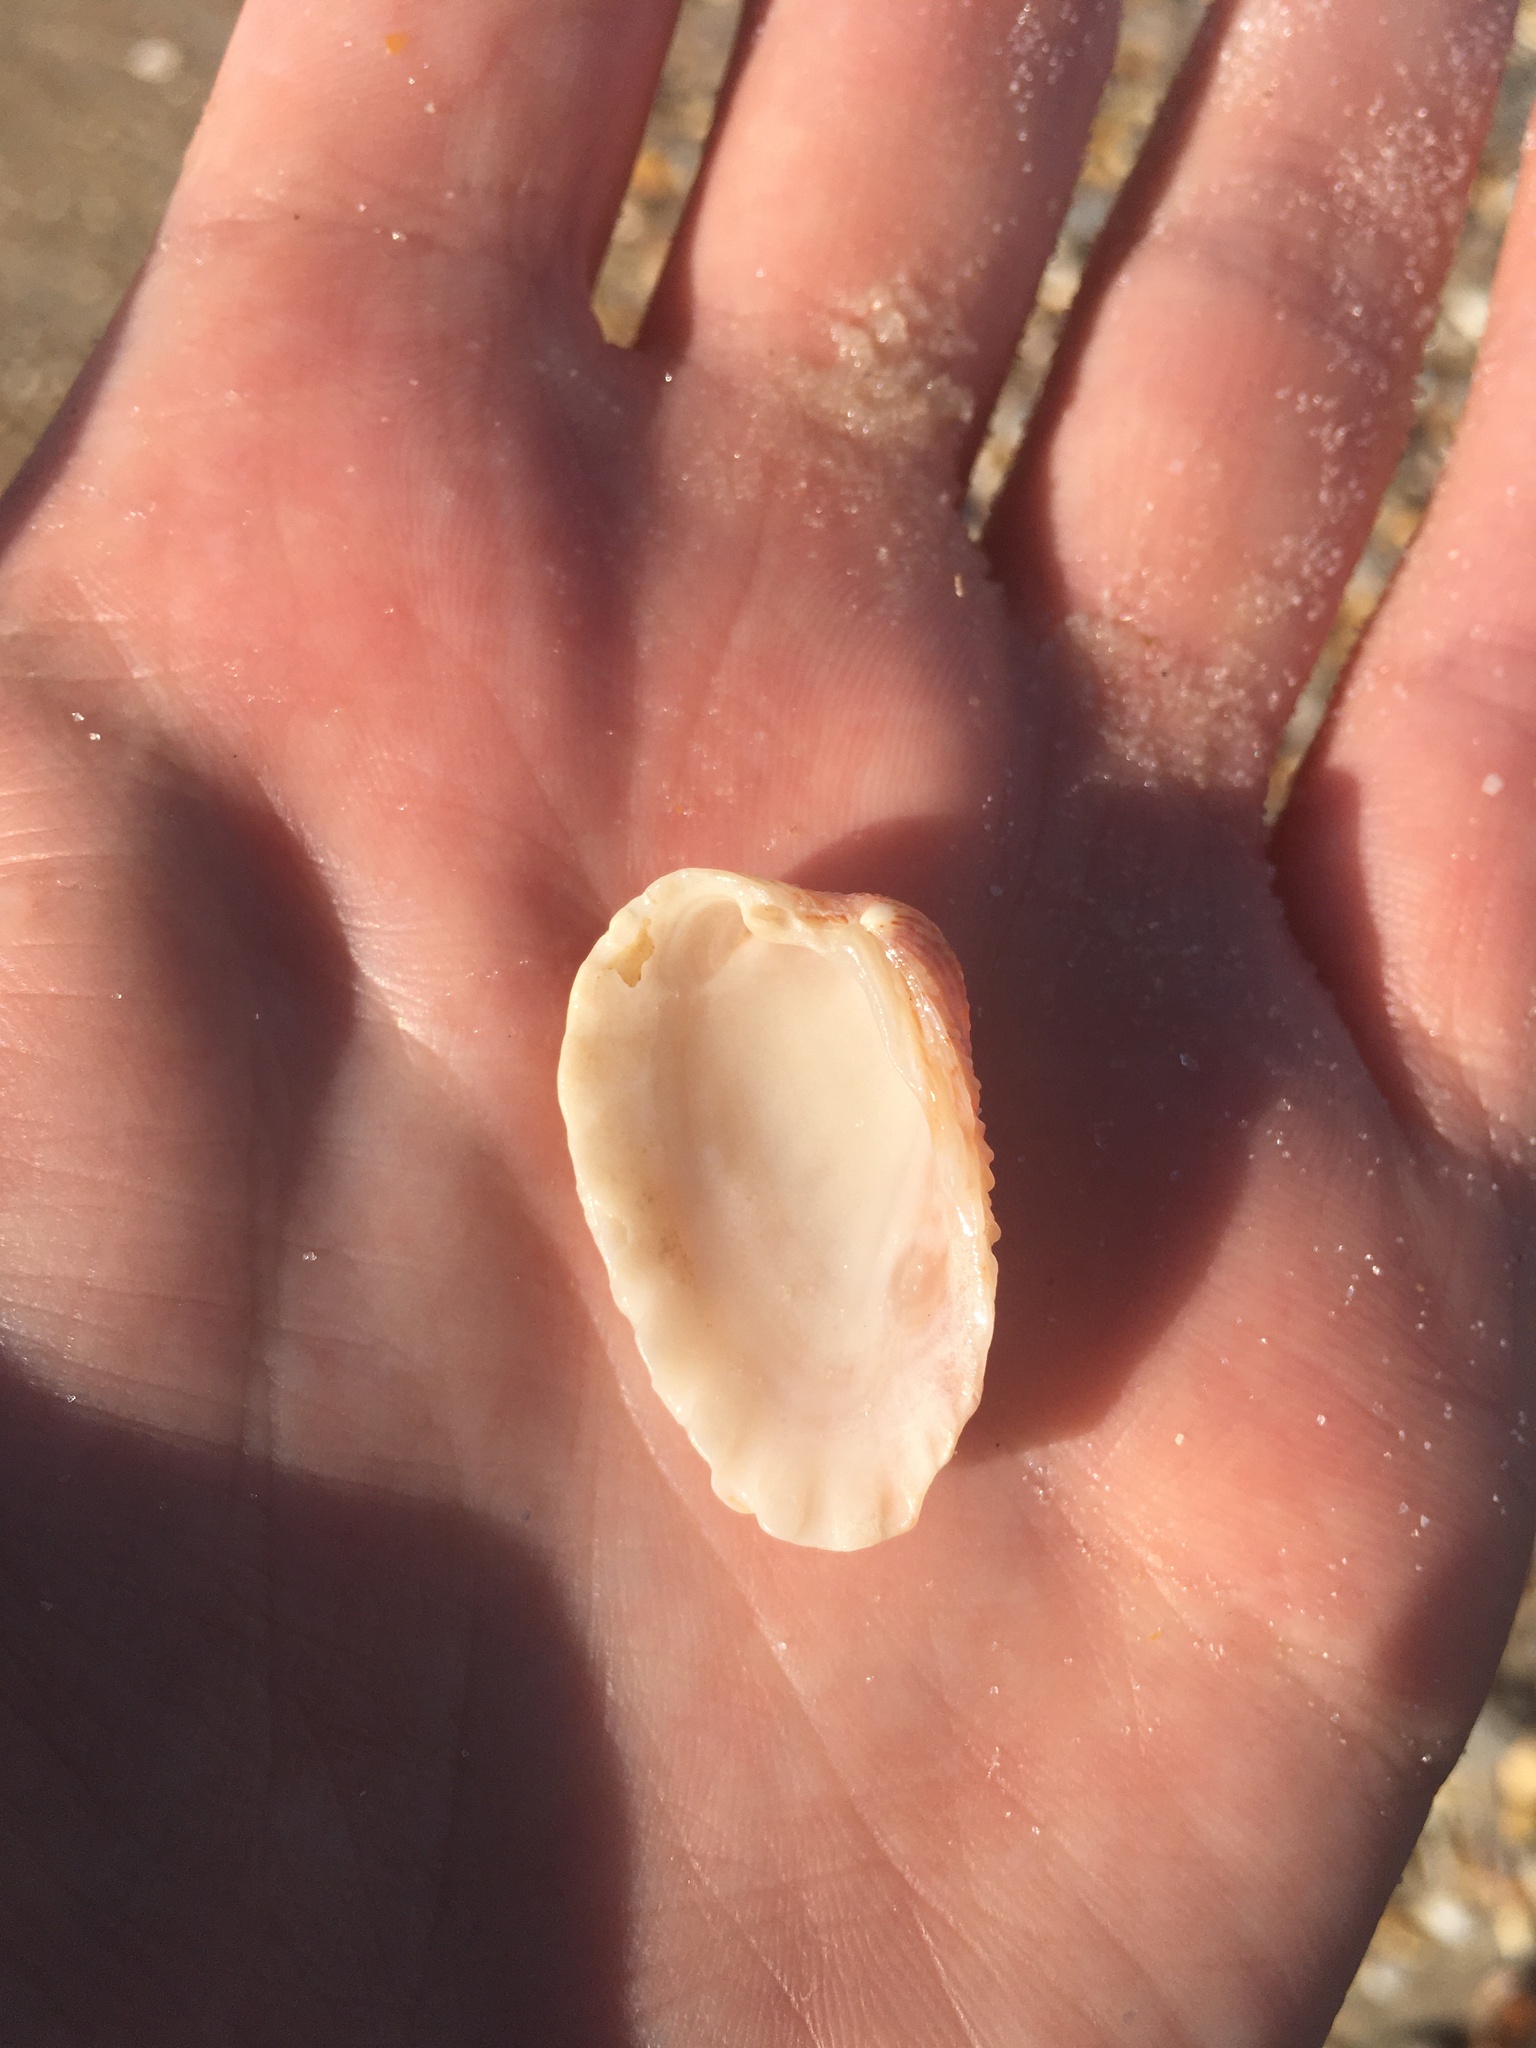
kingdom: Animalia
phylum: Mollusca
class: Bivalvia
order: Carditida
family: Carditidae
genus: Cardites
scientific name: Cardites floridanus
